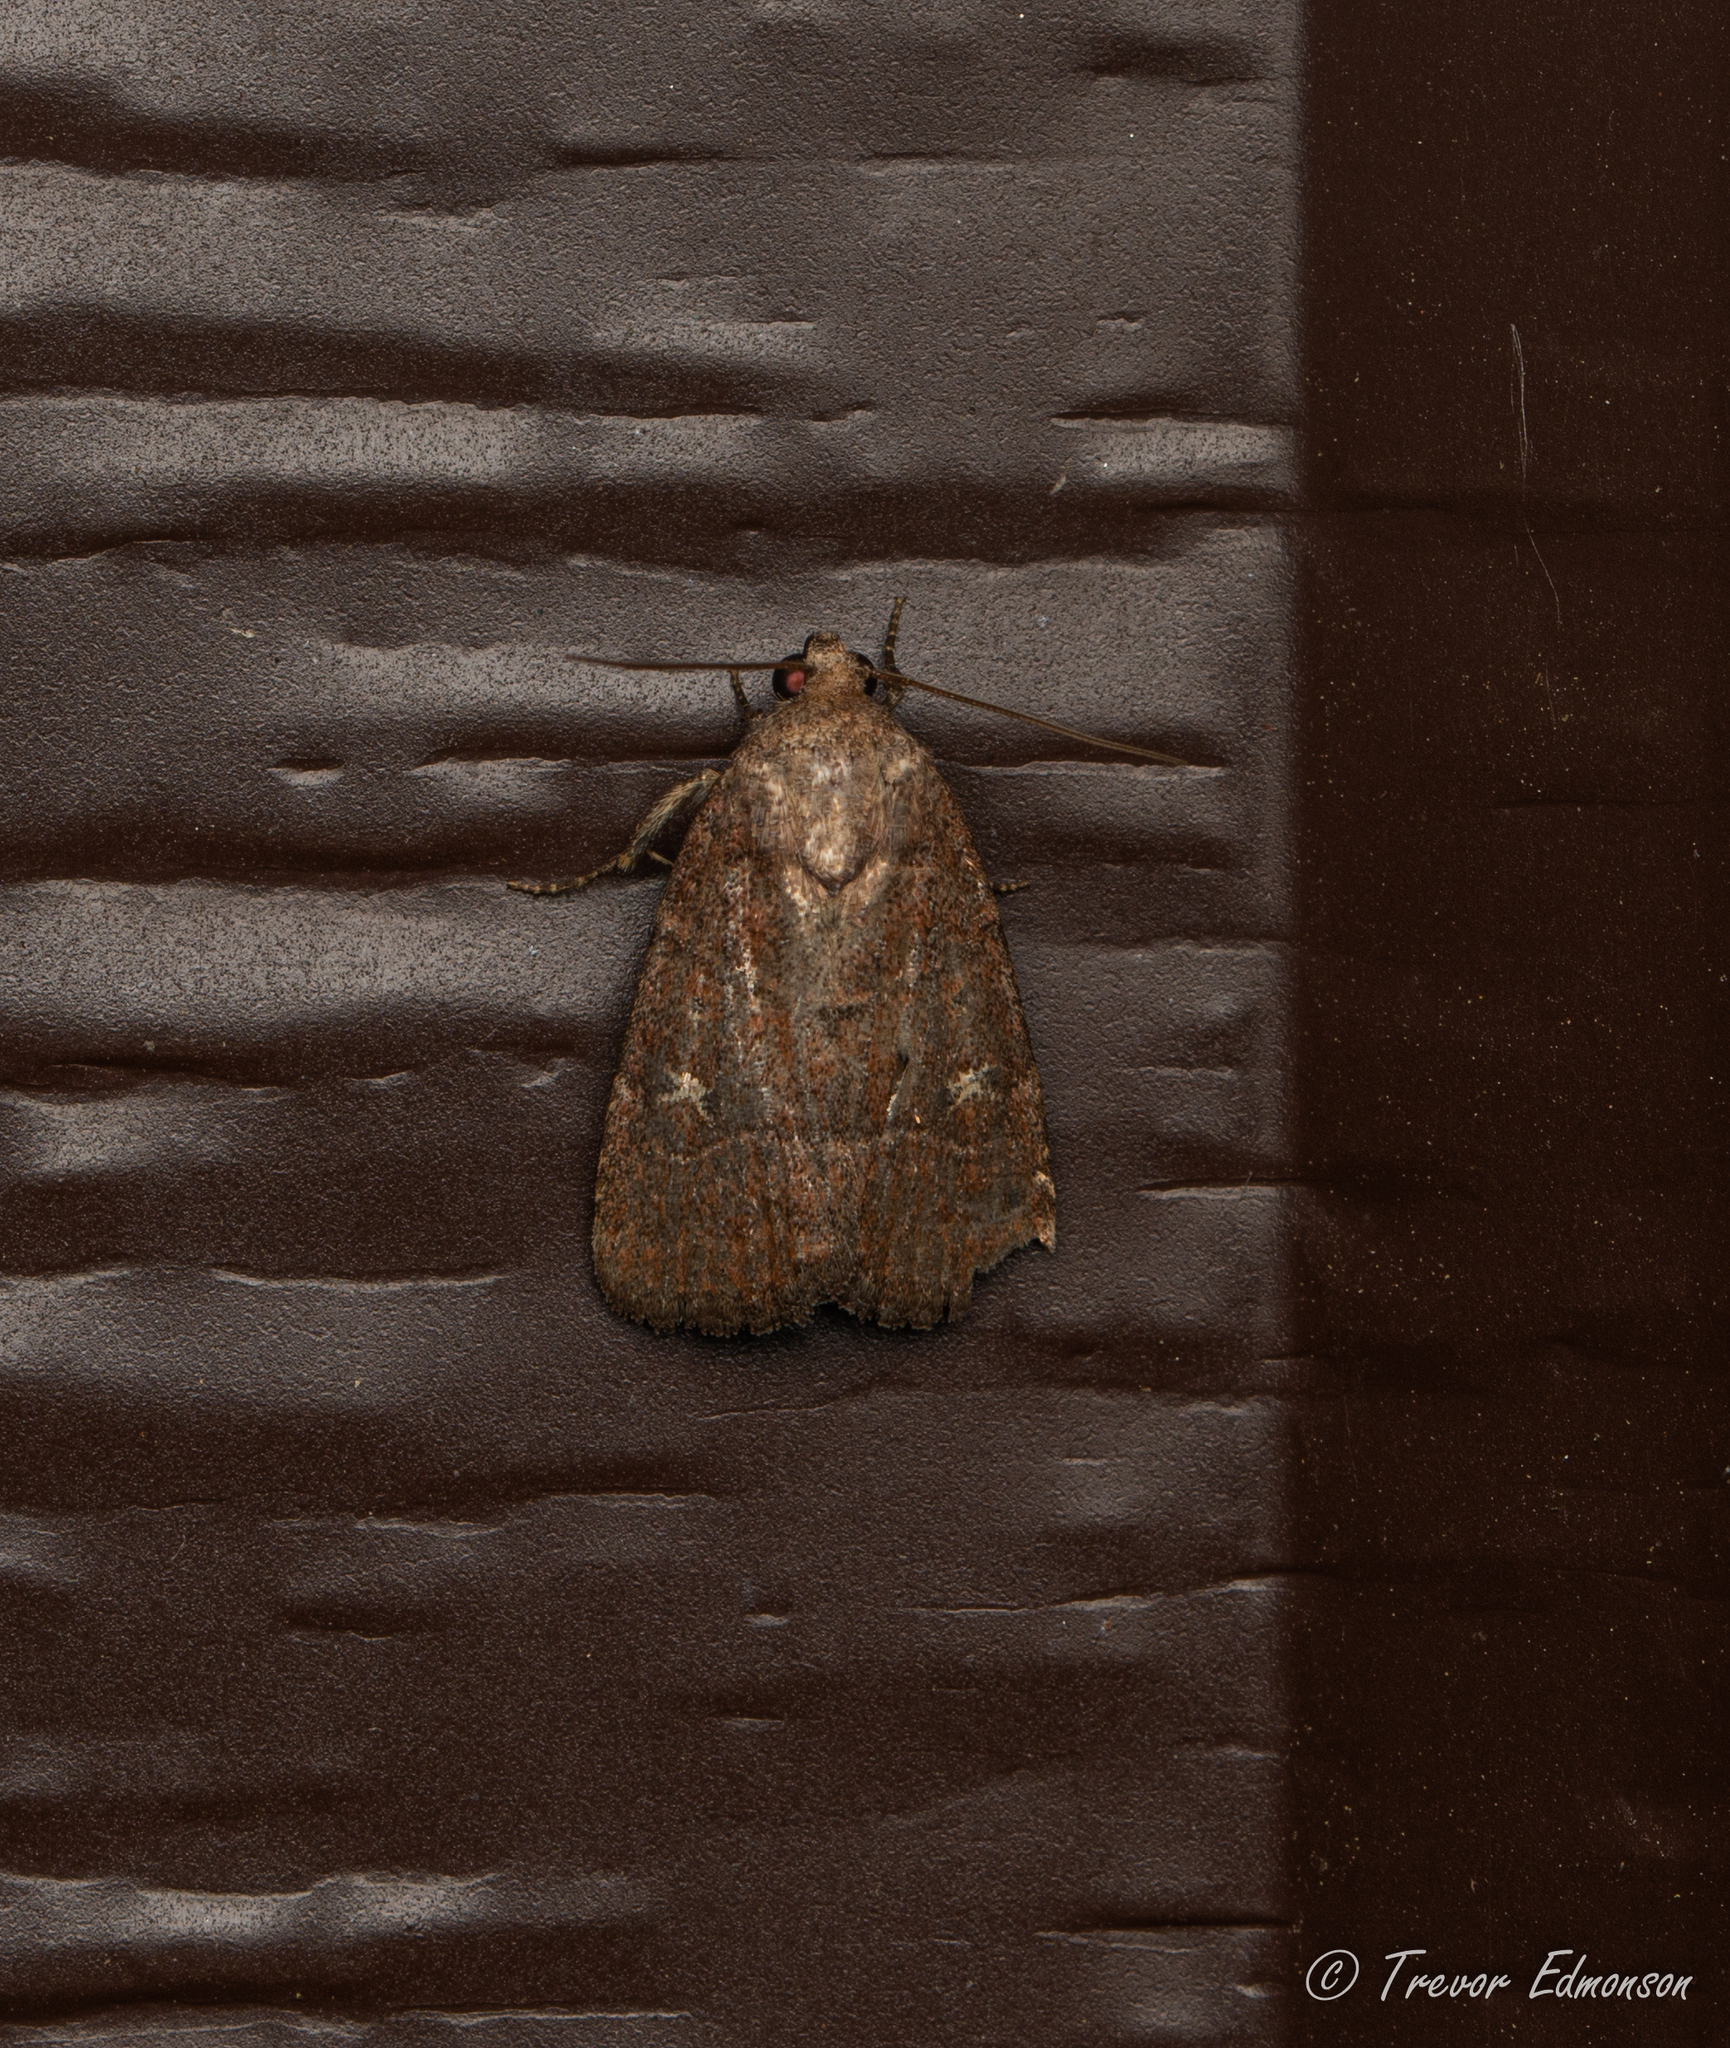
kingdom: Animalia
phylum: Arthropoda
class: Insecta
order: Lepidoptera
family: Noctuidae
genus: Elaphria
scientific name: Elaphria grata
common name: Grateful midget moth
